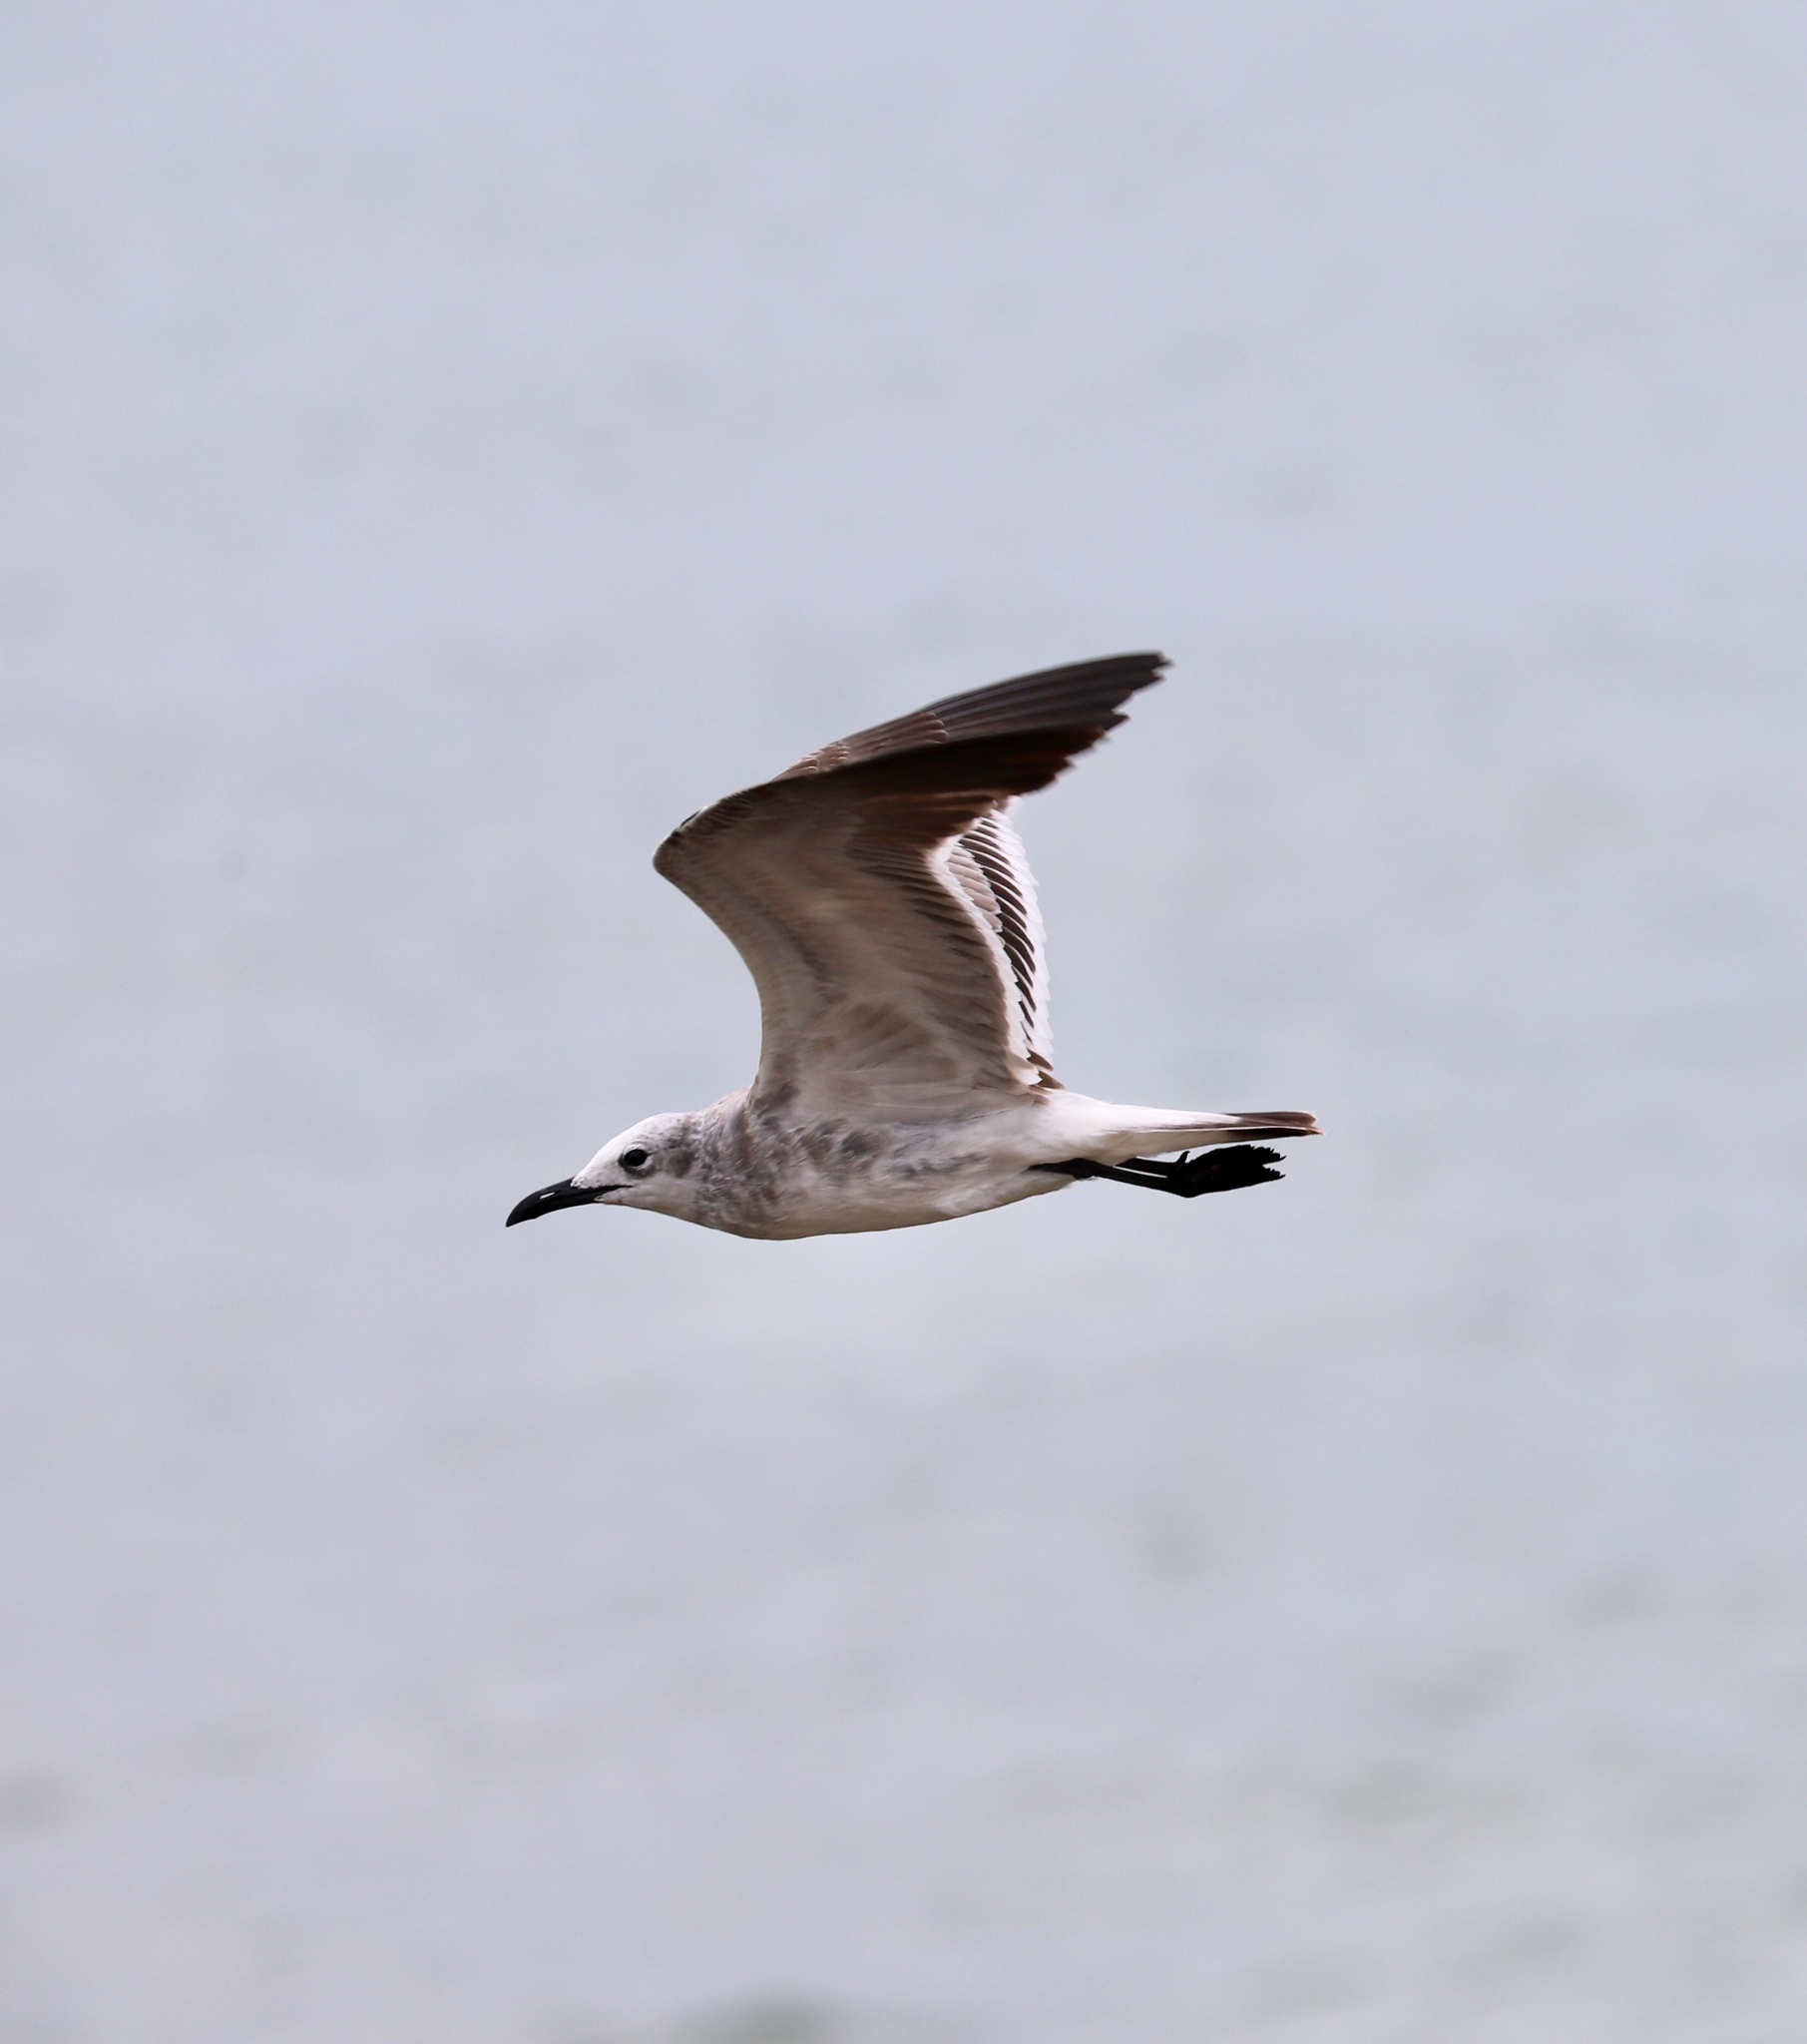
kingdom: Animalia
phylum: Chordata
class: Aves
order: Charadriiformes
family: Laridae
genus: Leucophaeus
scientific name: Leucophaeus atricilla
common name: Laughing gull
